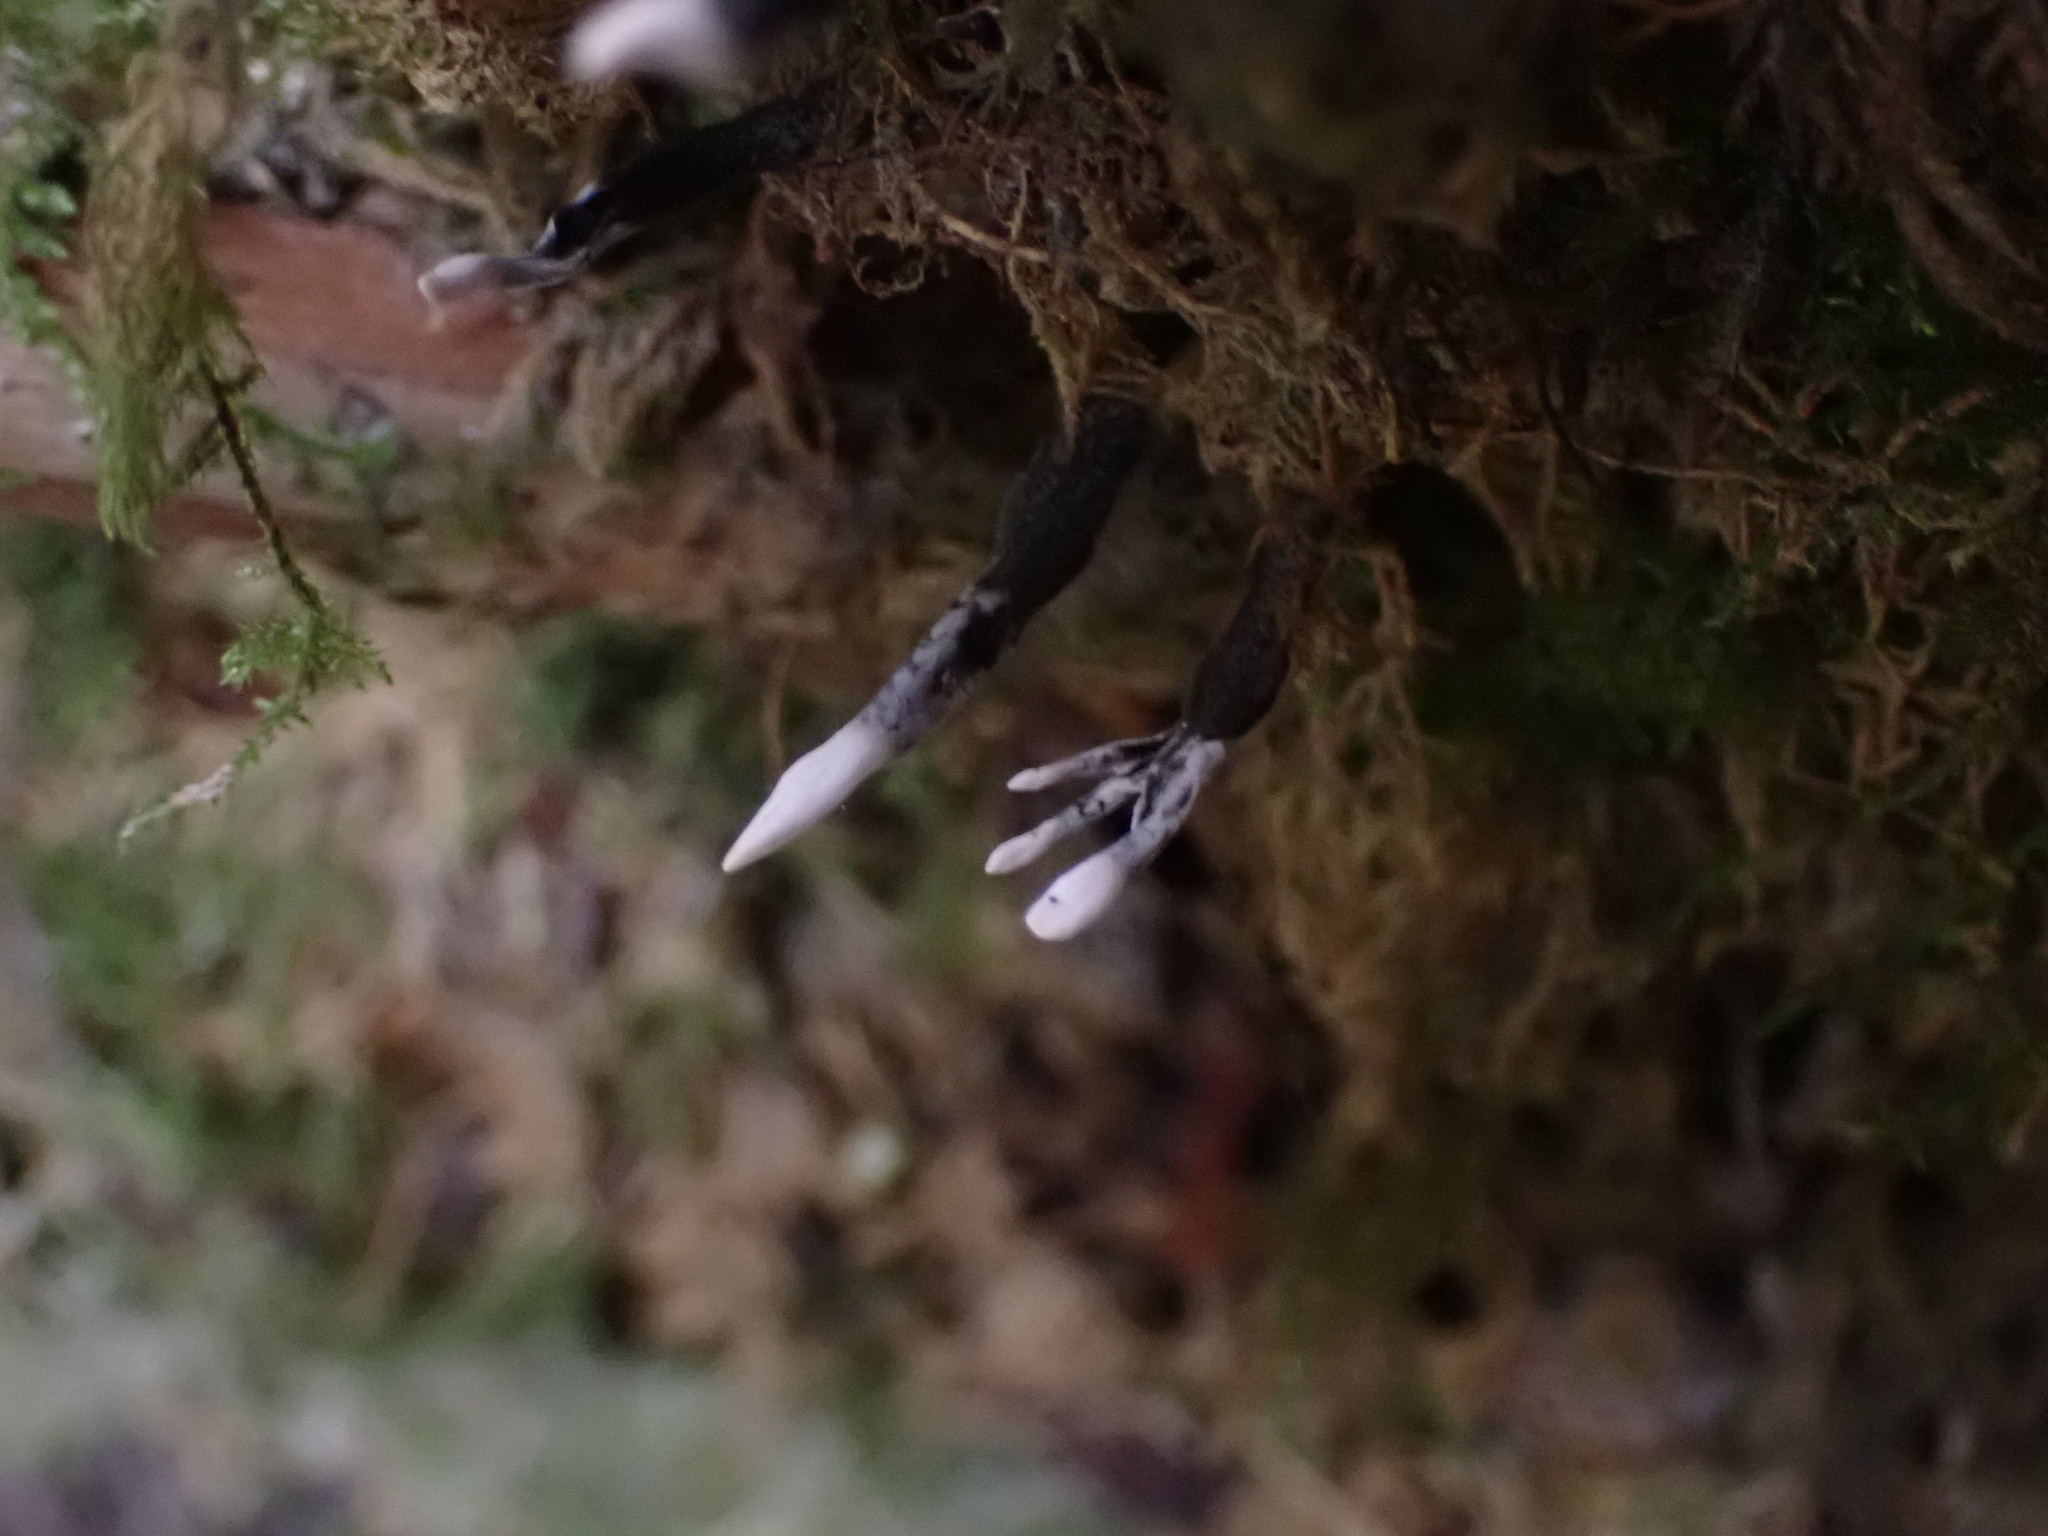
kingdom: Fungi
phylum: Ascomycota
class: Sordariomycetes
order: Xylariales
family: Xylariaceae
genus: Xylaria
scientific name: Xylaria hypoxylon
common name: Candle-snuff fungus
